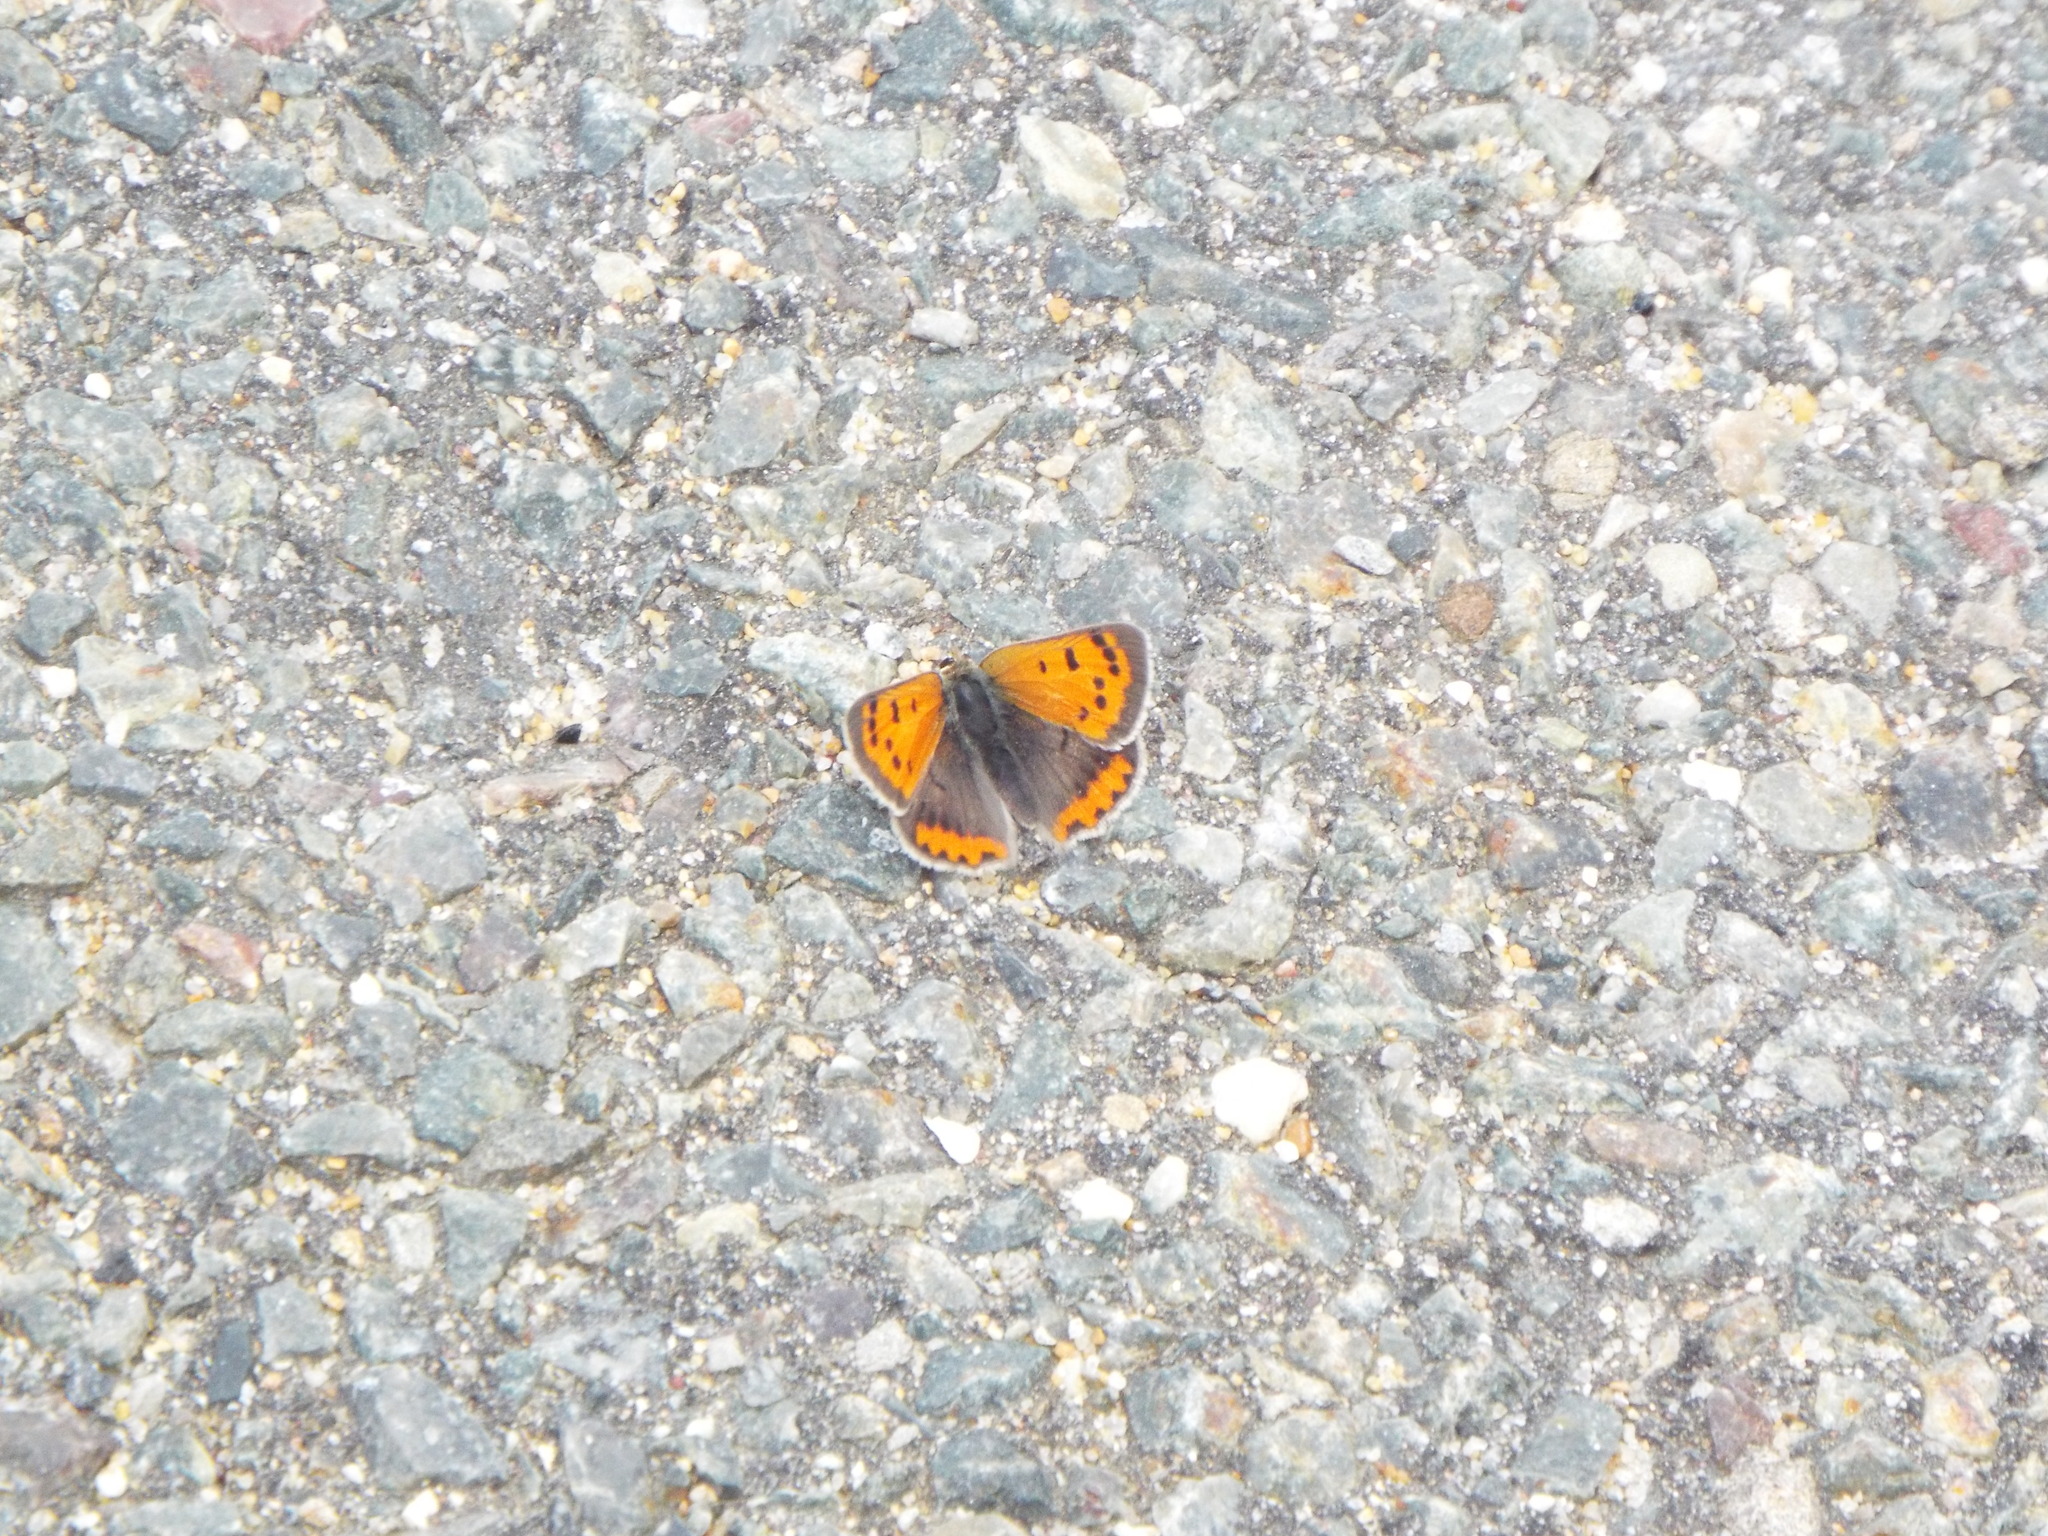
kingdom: Animalia
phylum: Arthropoda
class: Insecta
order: Lepidoptera
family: Lycaenidae
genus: Lycaena
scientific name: Lycaena hypophlaeas
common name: American copper
